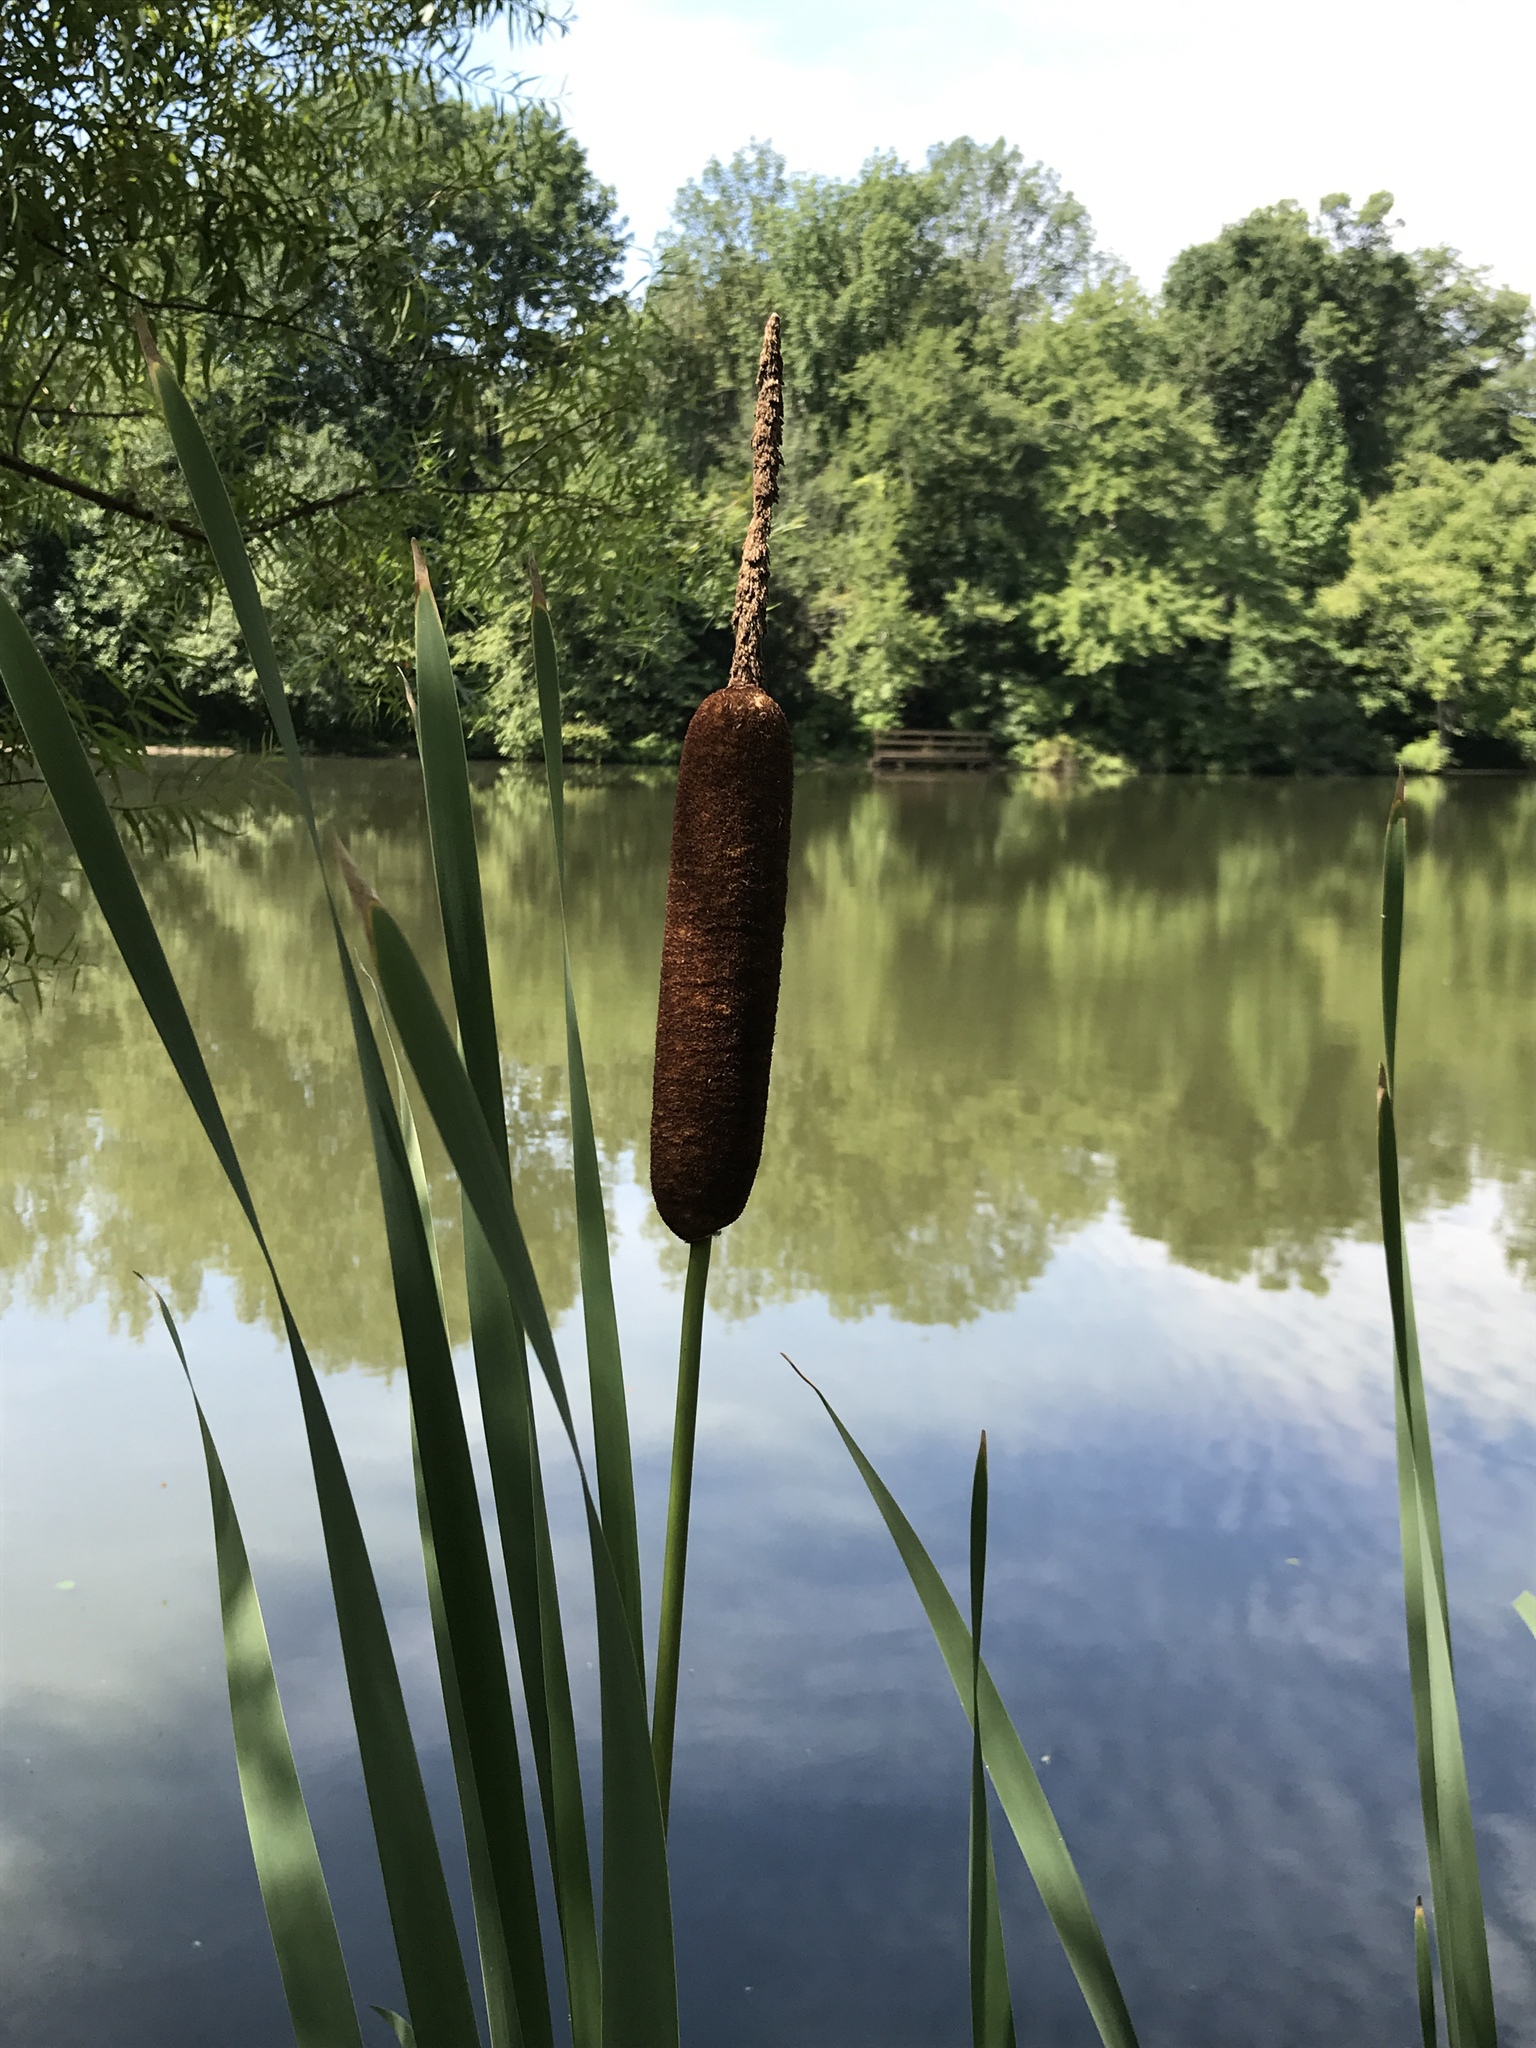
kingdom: Plantae
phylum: Tracheophyta
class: Liliopsida
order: Poales
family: Typhaceae
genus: Typha
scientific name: Typha latifolia
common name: Broadleaf cattail
